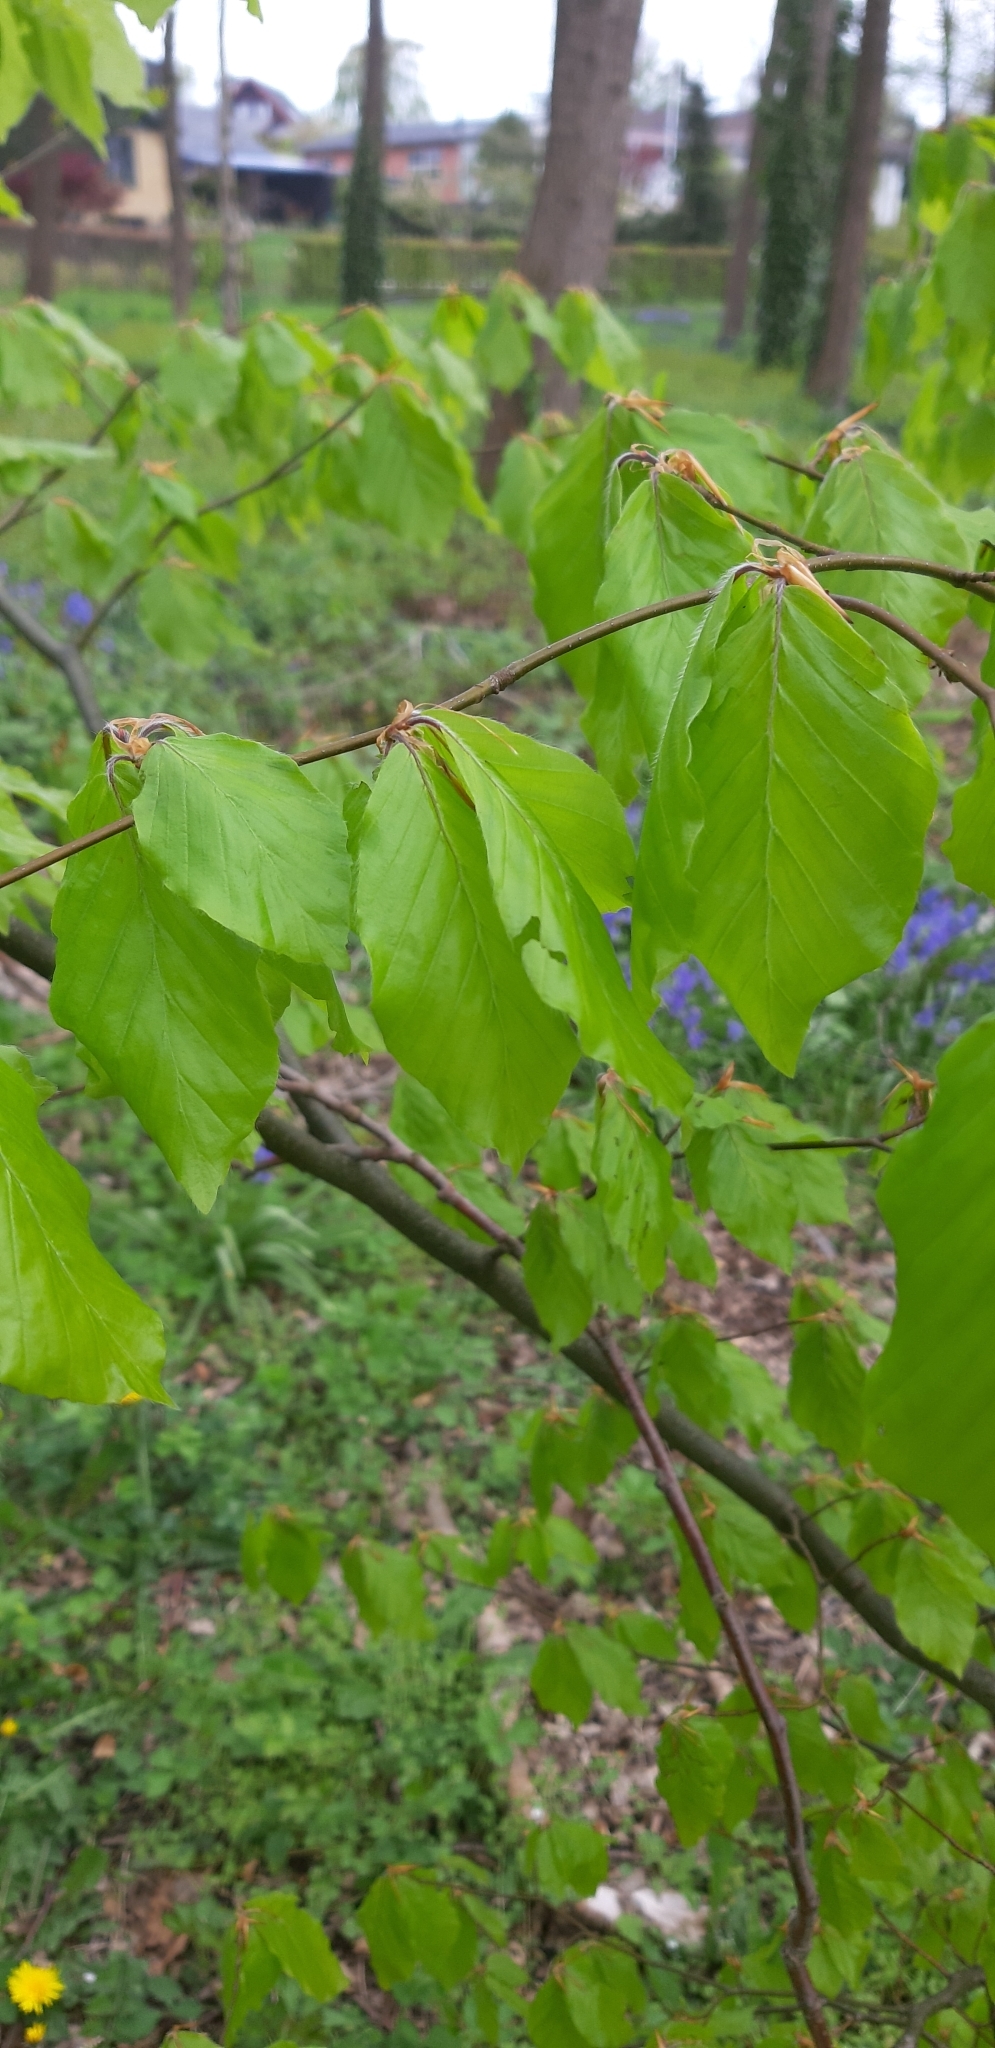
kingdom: Plantae
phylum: Tracheophyta
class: Magnoliopsida
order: Fagales
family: Fagaceae
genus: Fagus
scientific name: Fagus sylvatica
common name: Beech
